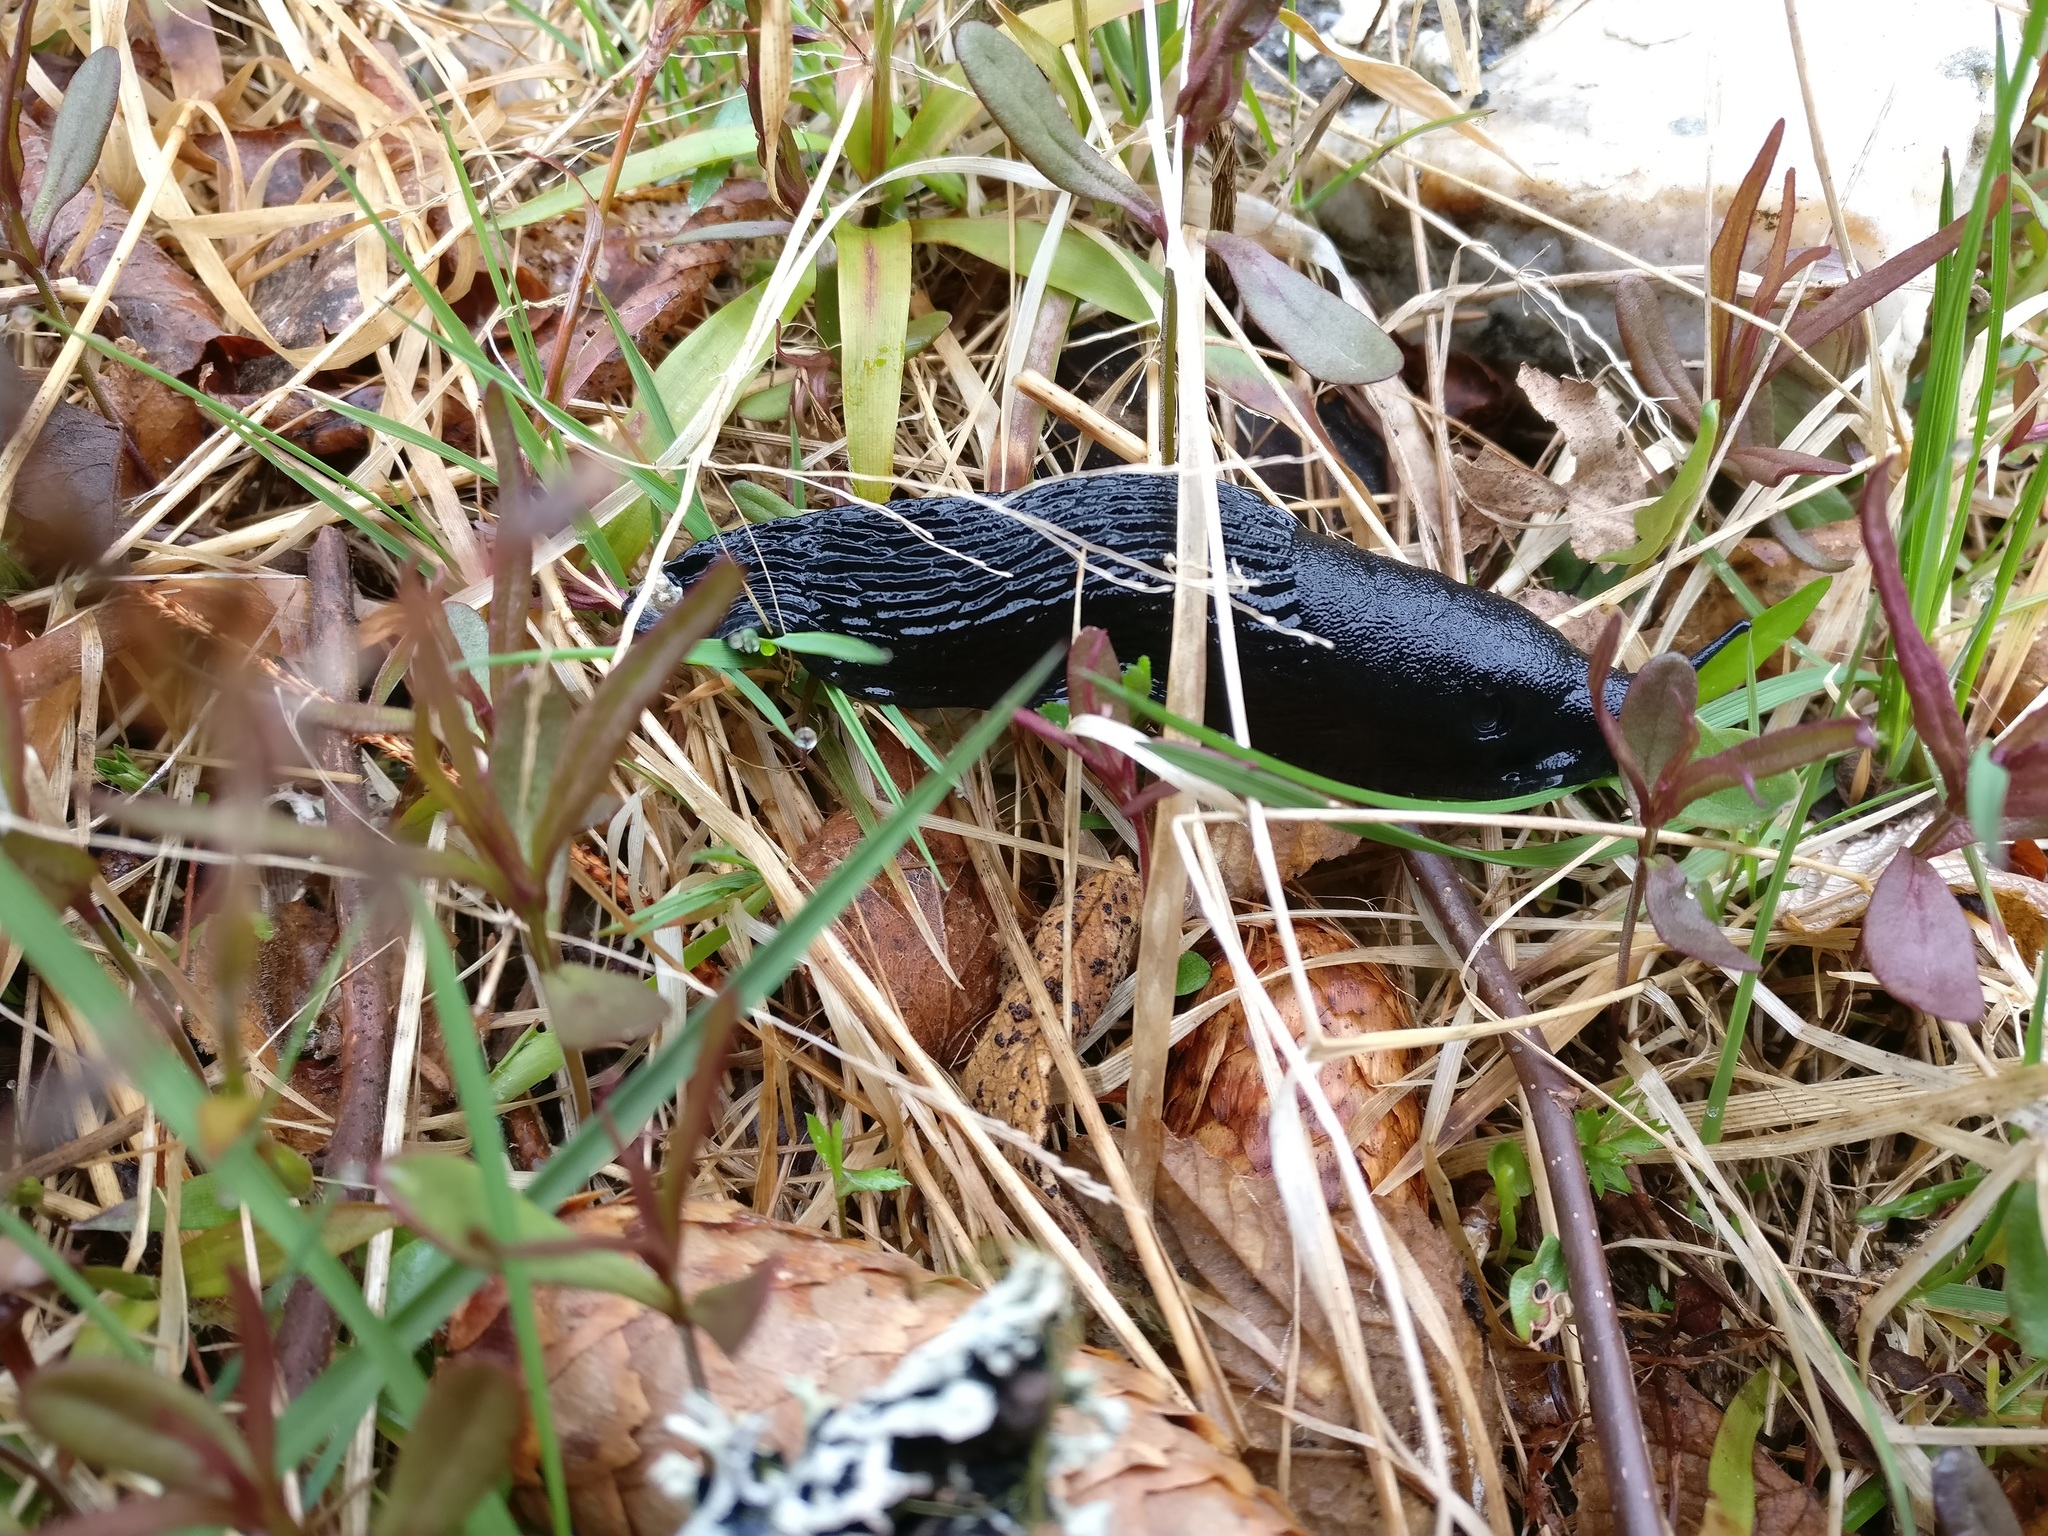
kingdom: Animalia
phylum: Mollusca
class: Gastropoda
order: Stylommatophora
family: Arionidae
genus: Arion
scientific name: Arion ater
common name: Black arion
